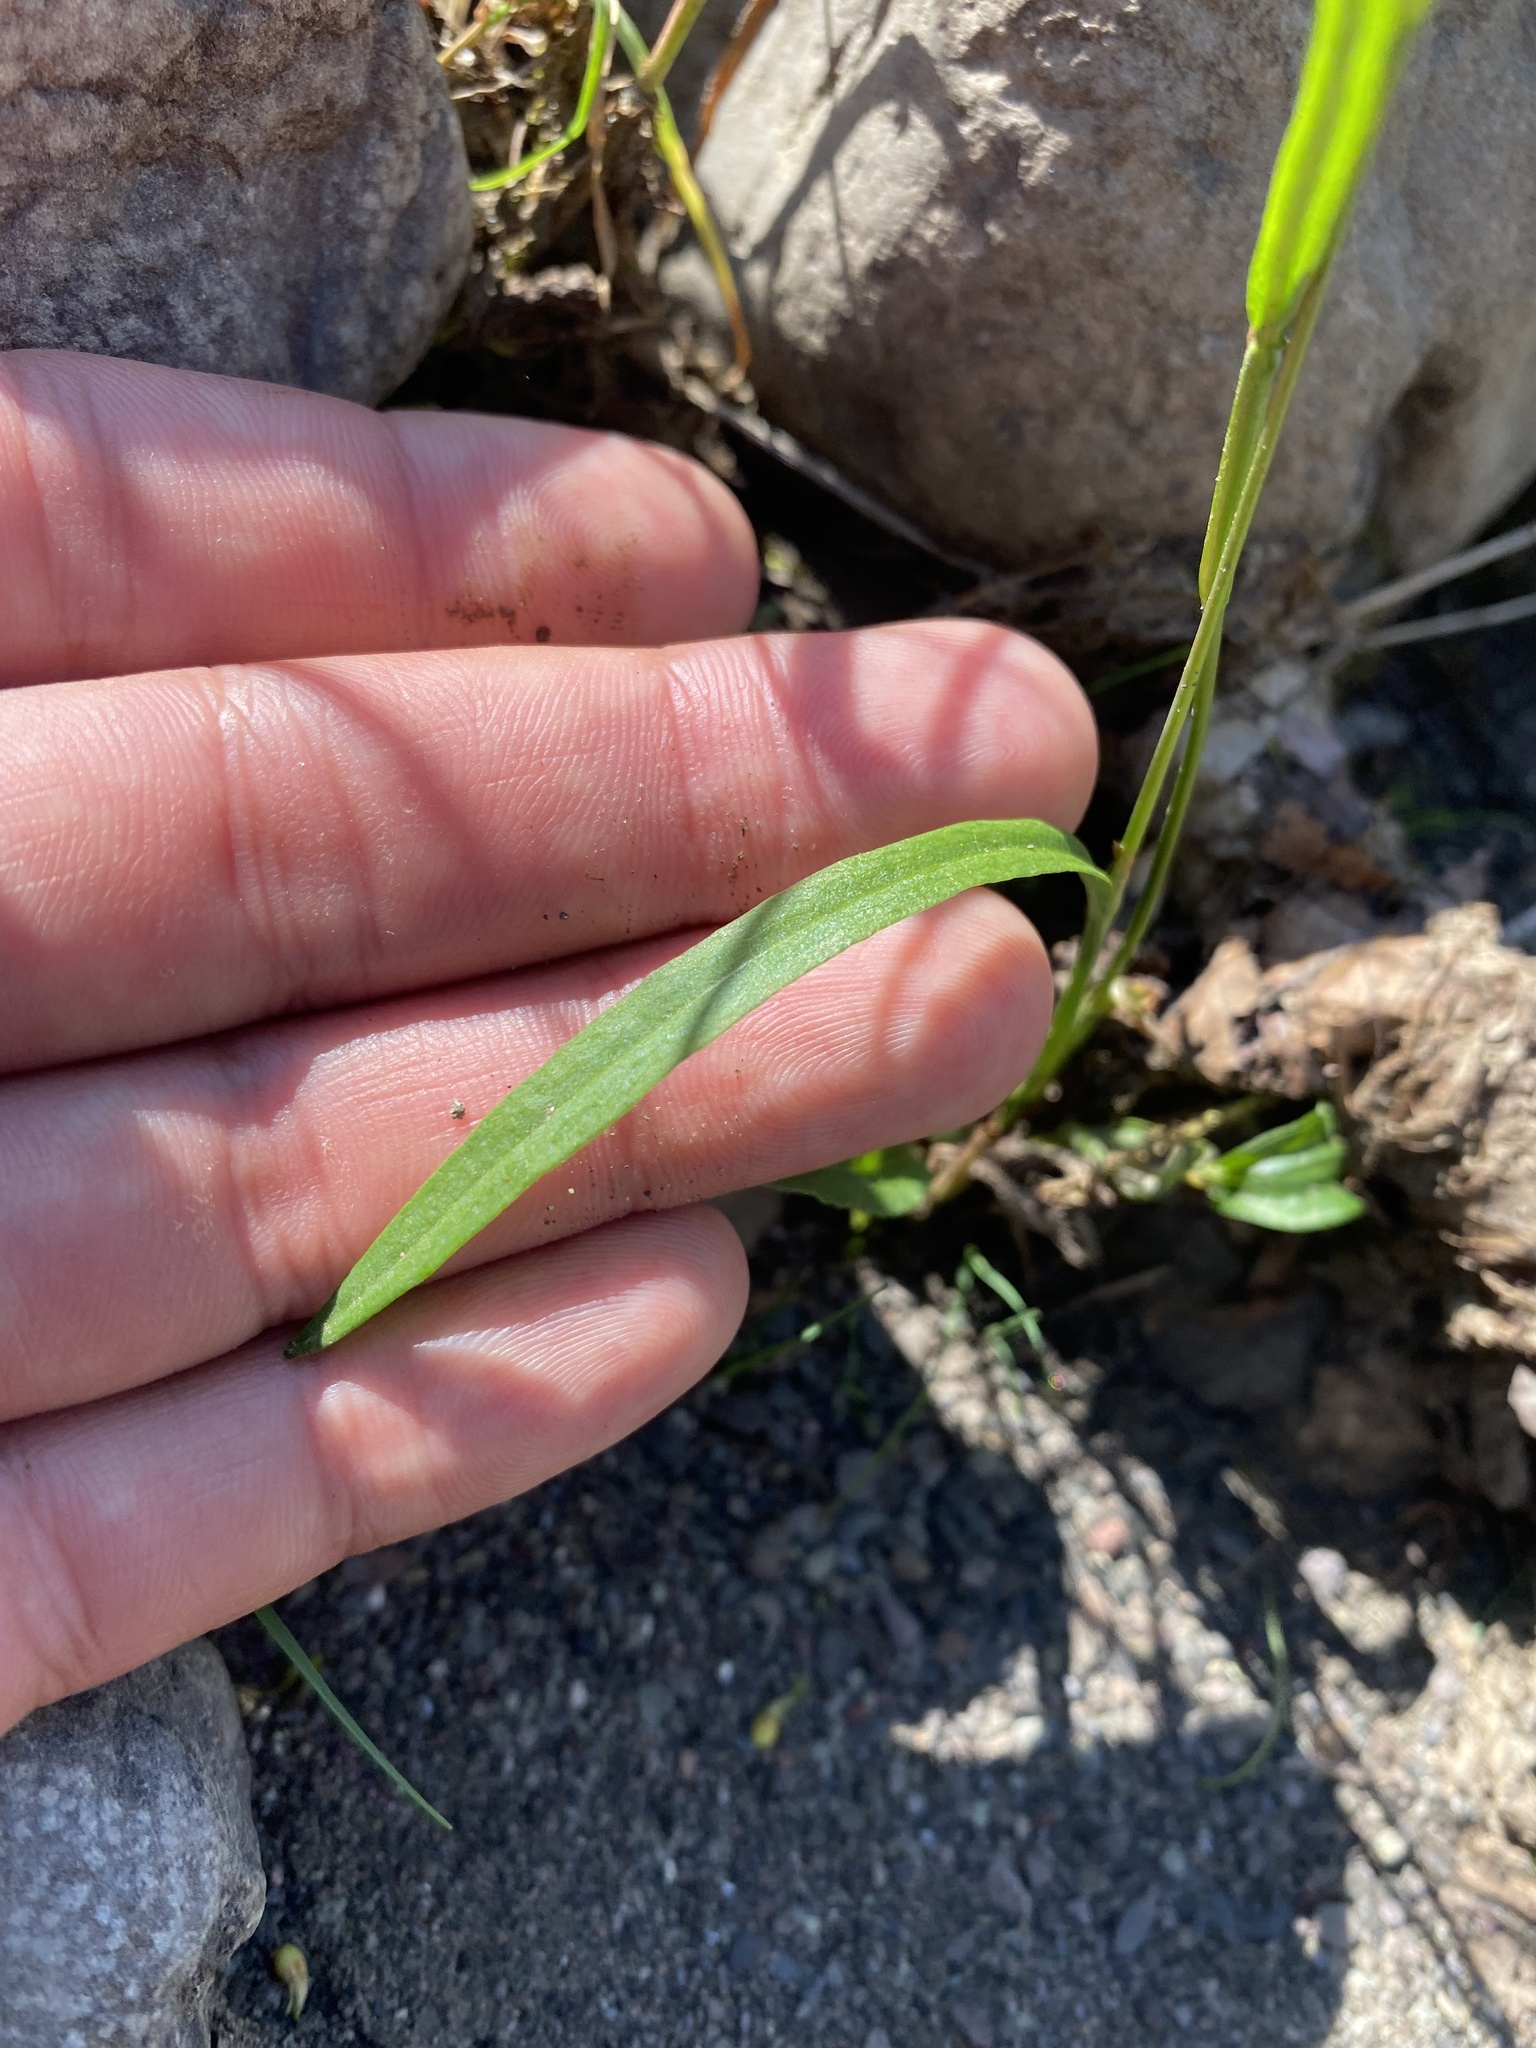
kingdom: Plantae
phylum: Tracheophyta
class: Magnoliopsida
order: Caryophyllales
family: Polygonaceae
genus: Bistorta
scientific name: Bistorta vivipara
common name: Alpine bistort
